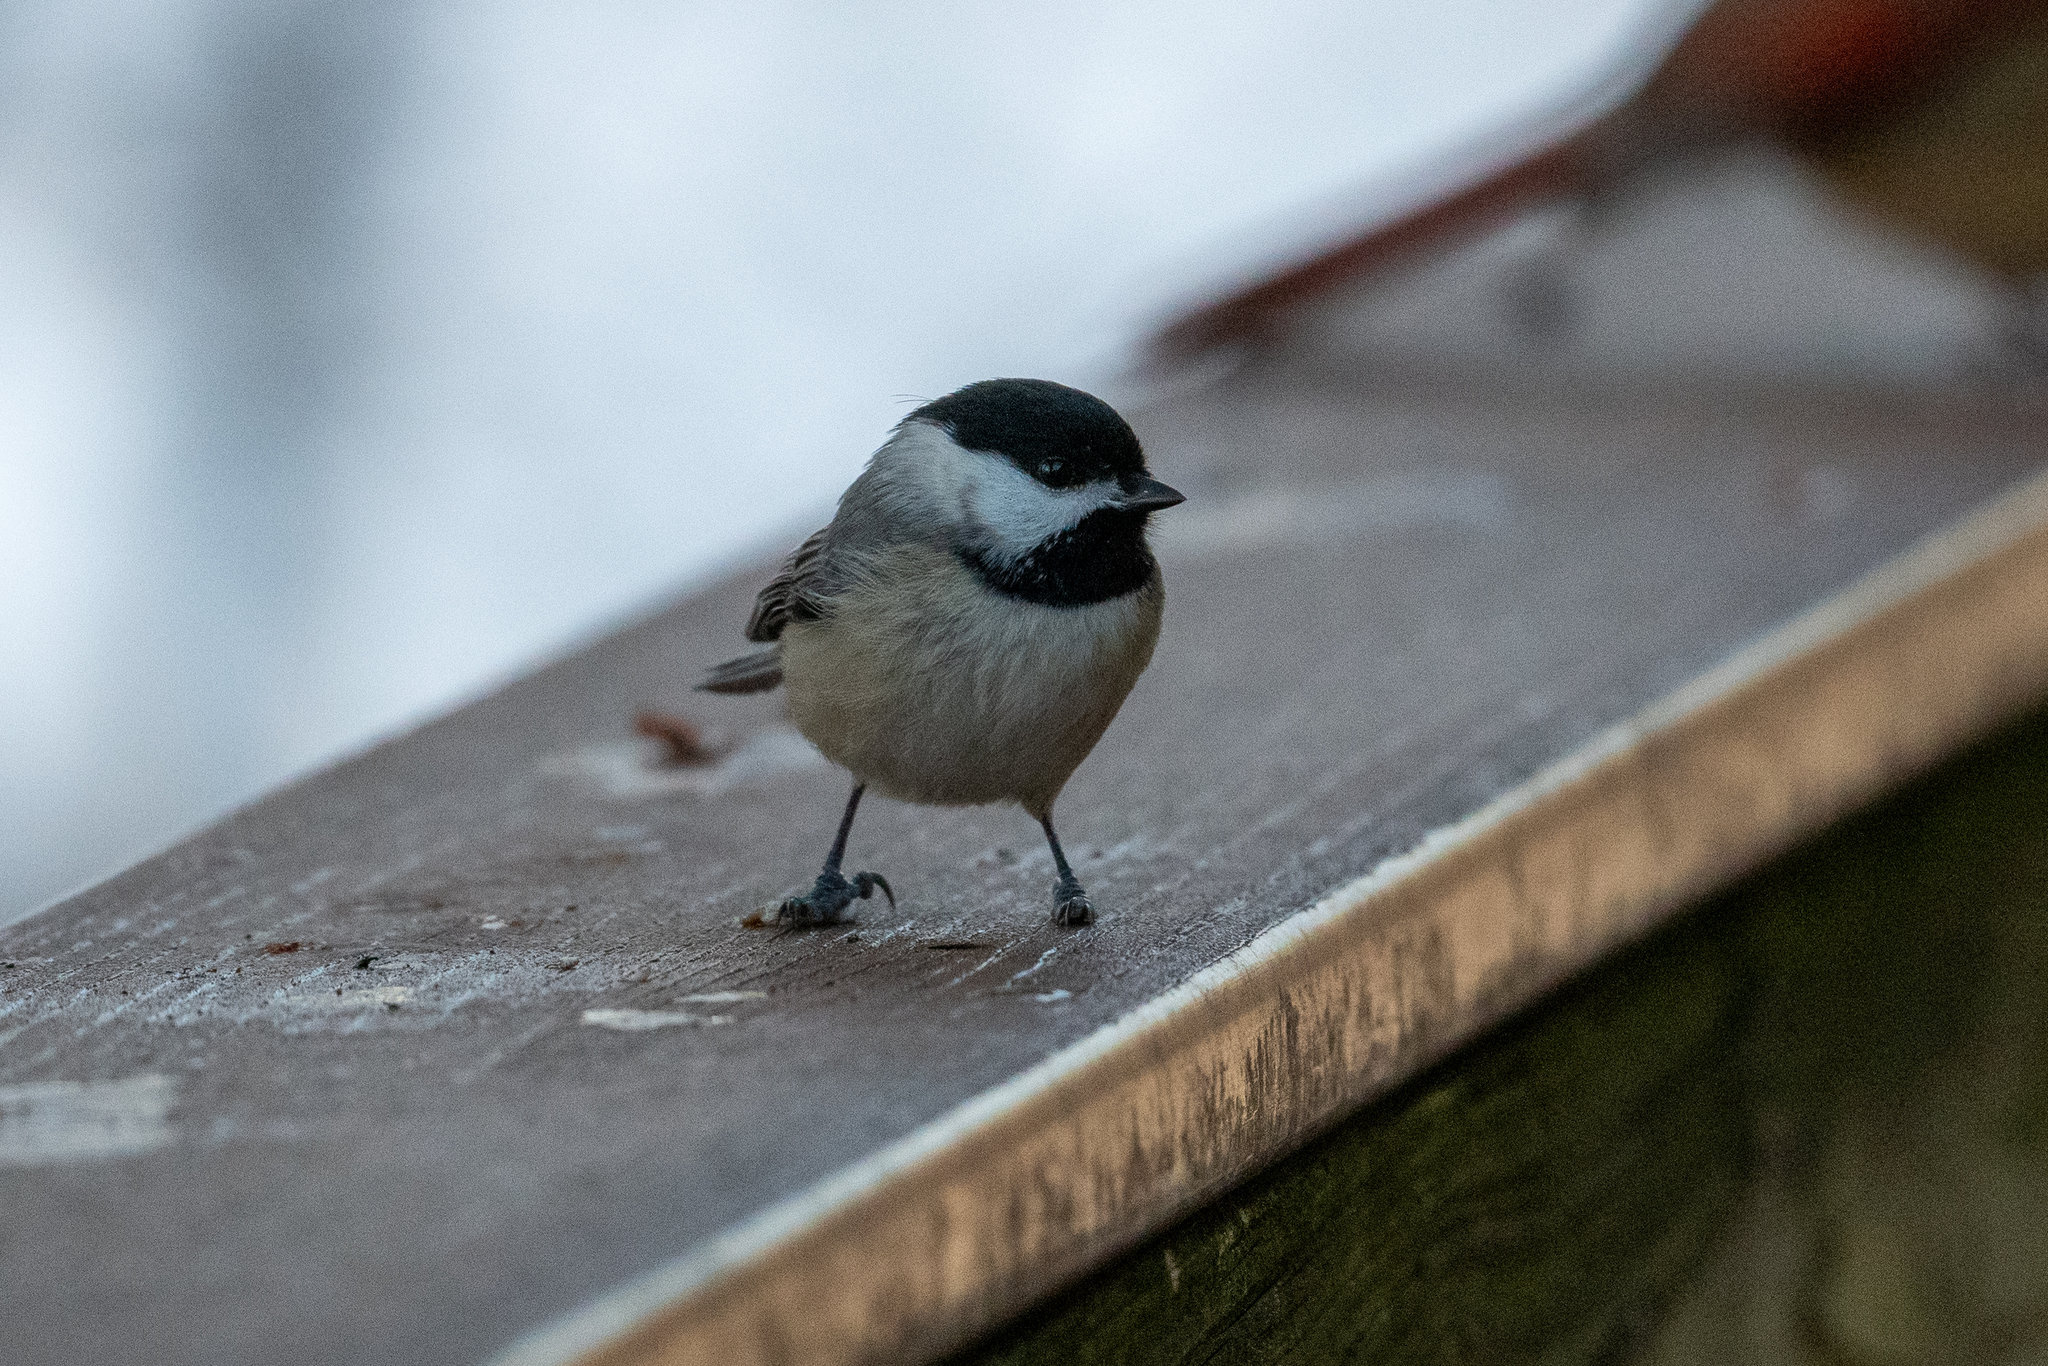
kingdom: Animalia
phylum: Chordata
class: Aves
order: Passeriformes
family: Paridae
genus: Poecile
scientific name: Poecile carolinensis
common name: Carolina chickadee
